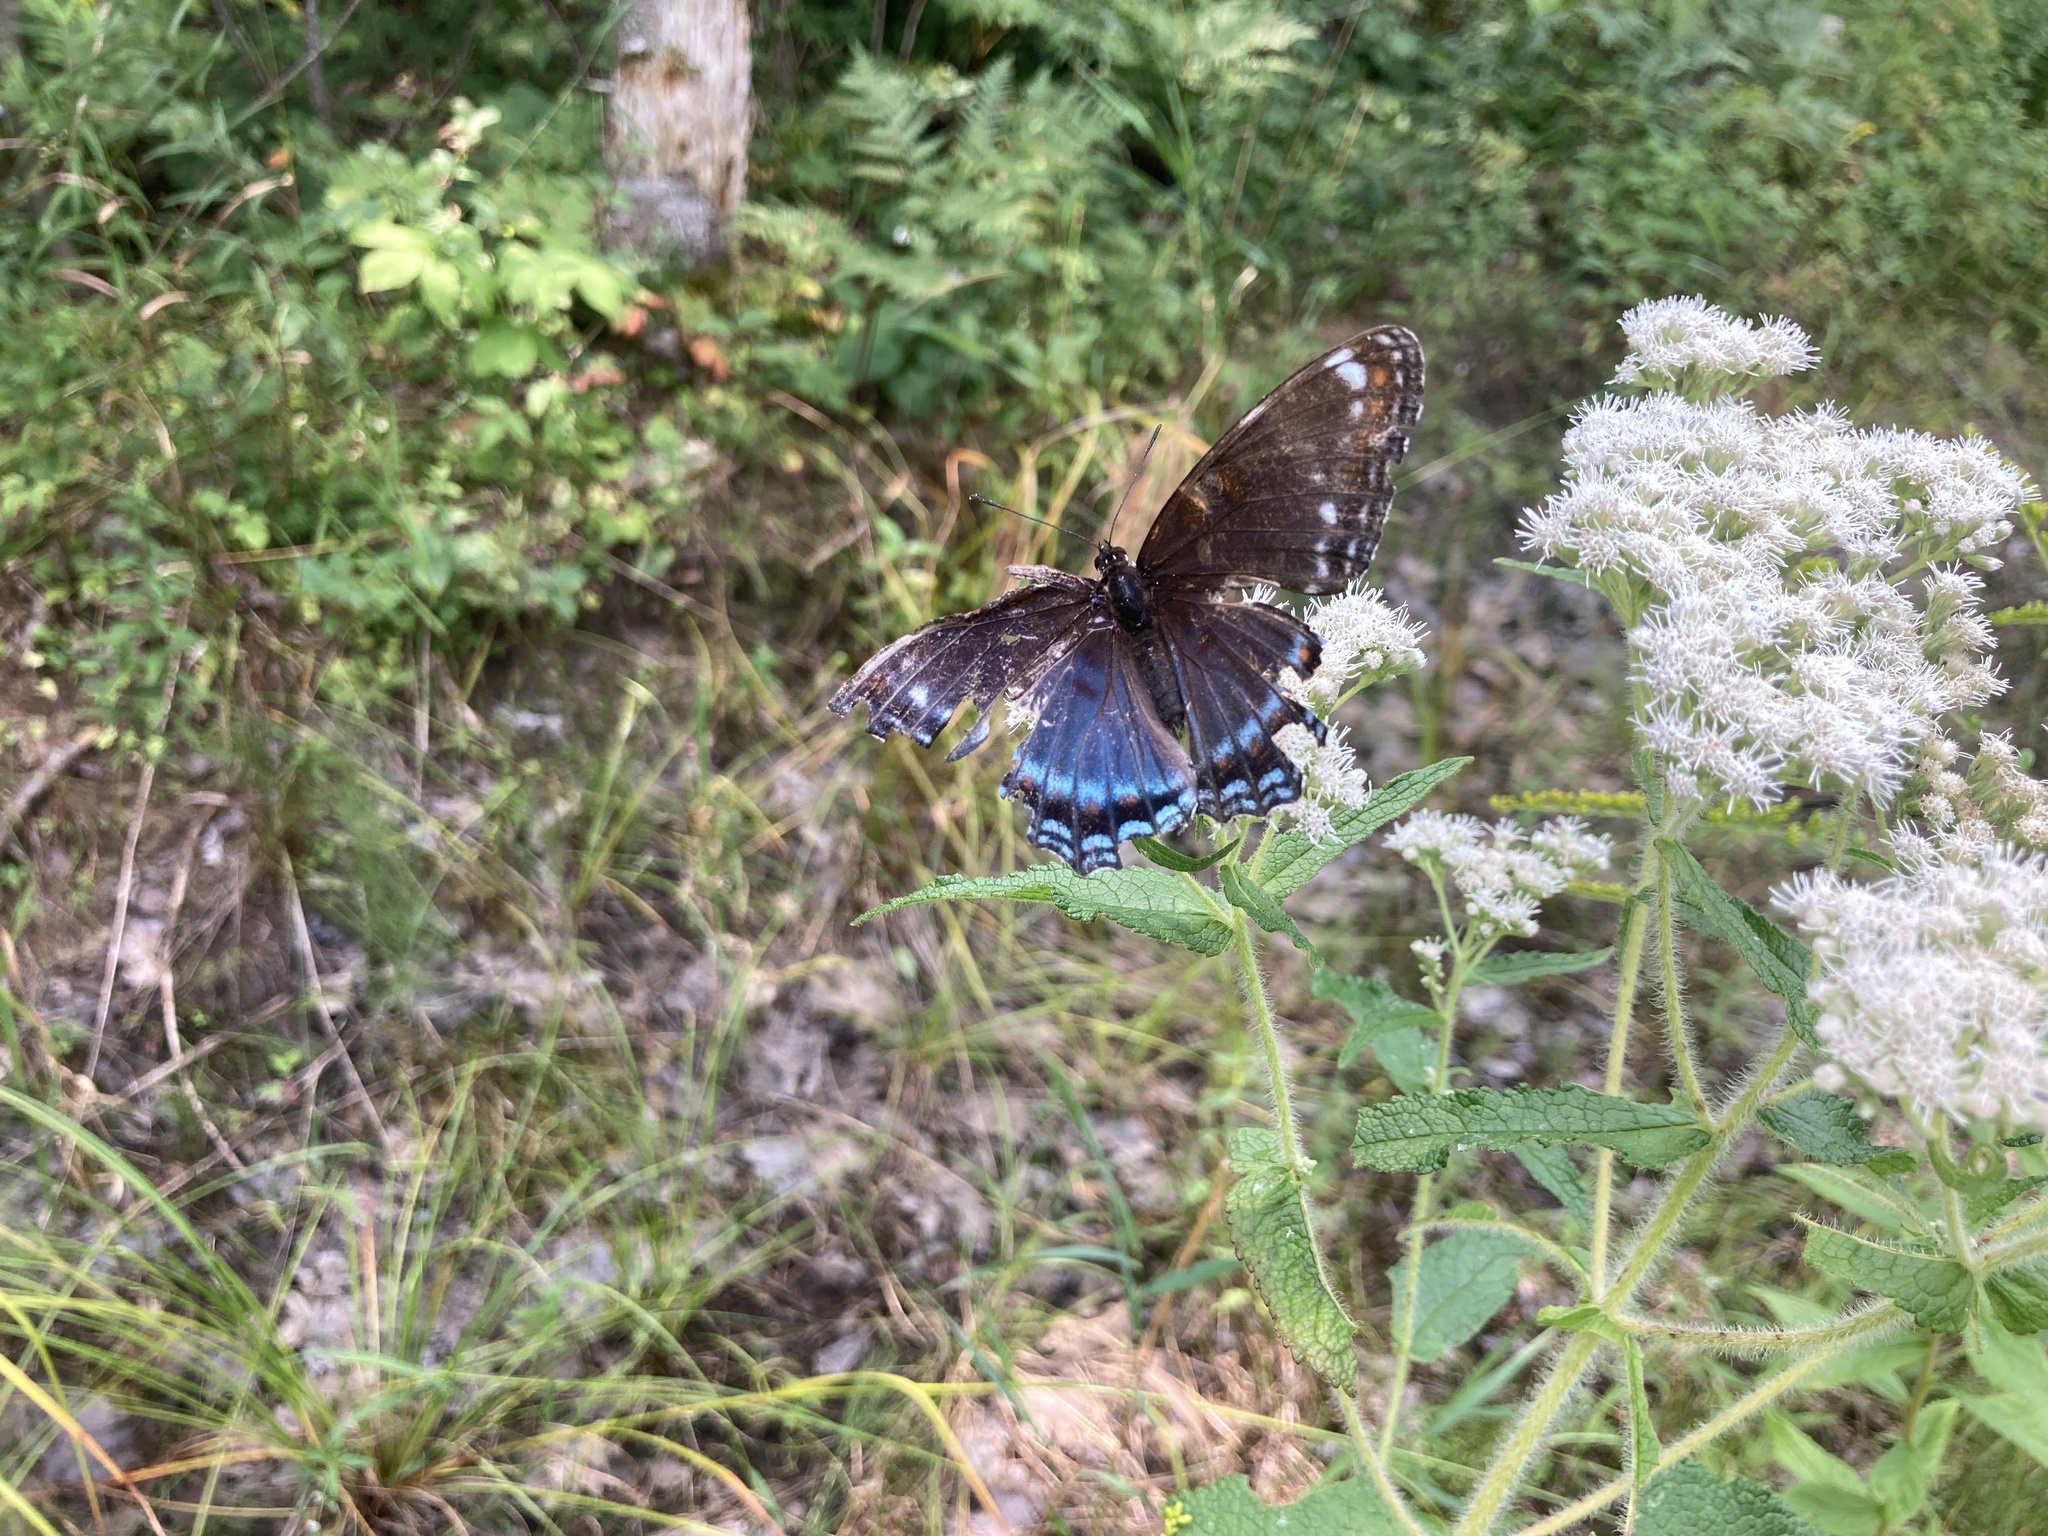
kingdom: Animalia
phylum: Arthropoda
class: Insecta
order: Lepidoptera
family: Nymphalidae
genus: Limenitis
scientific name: Limenitis arthemis
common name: Red-spotted admiral
